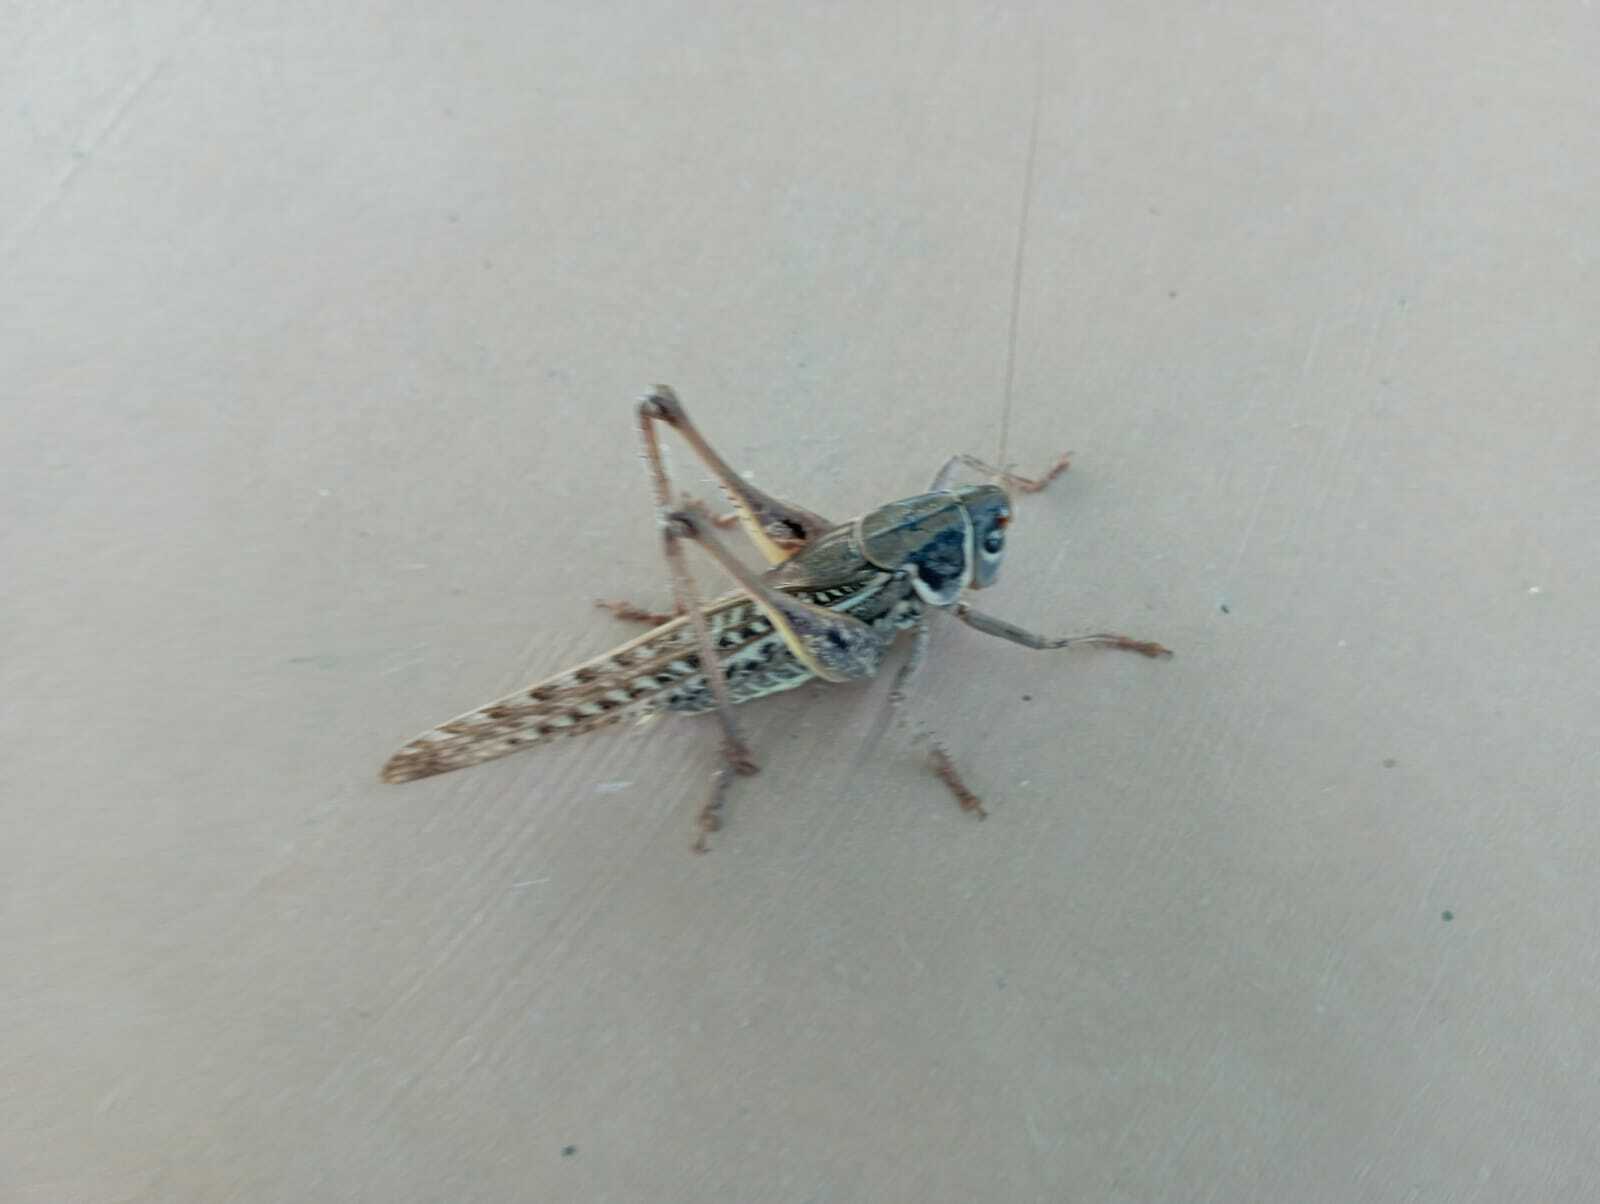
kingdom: Animalia
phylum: Arthropoda
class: Insecta
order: Orthoptera
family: Tettigoniidae
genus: Decticus
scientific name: Decticus albifrons
